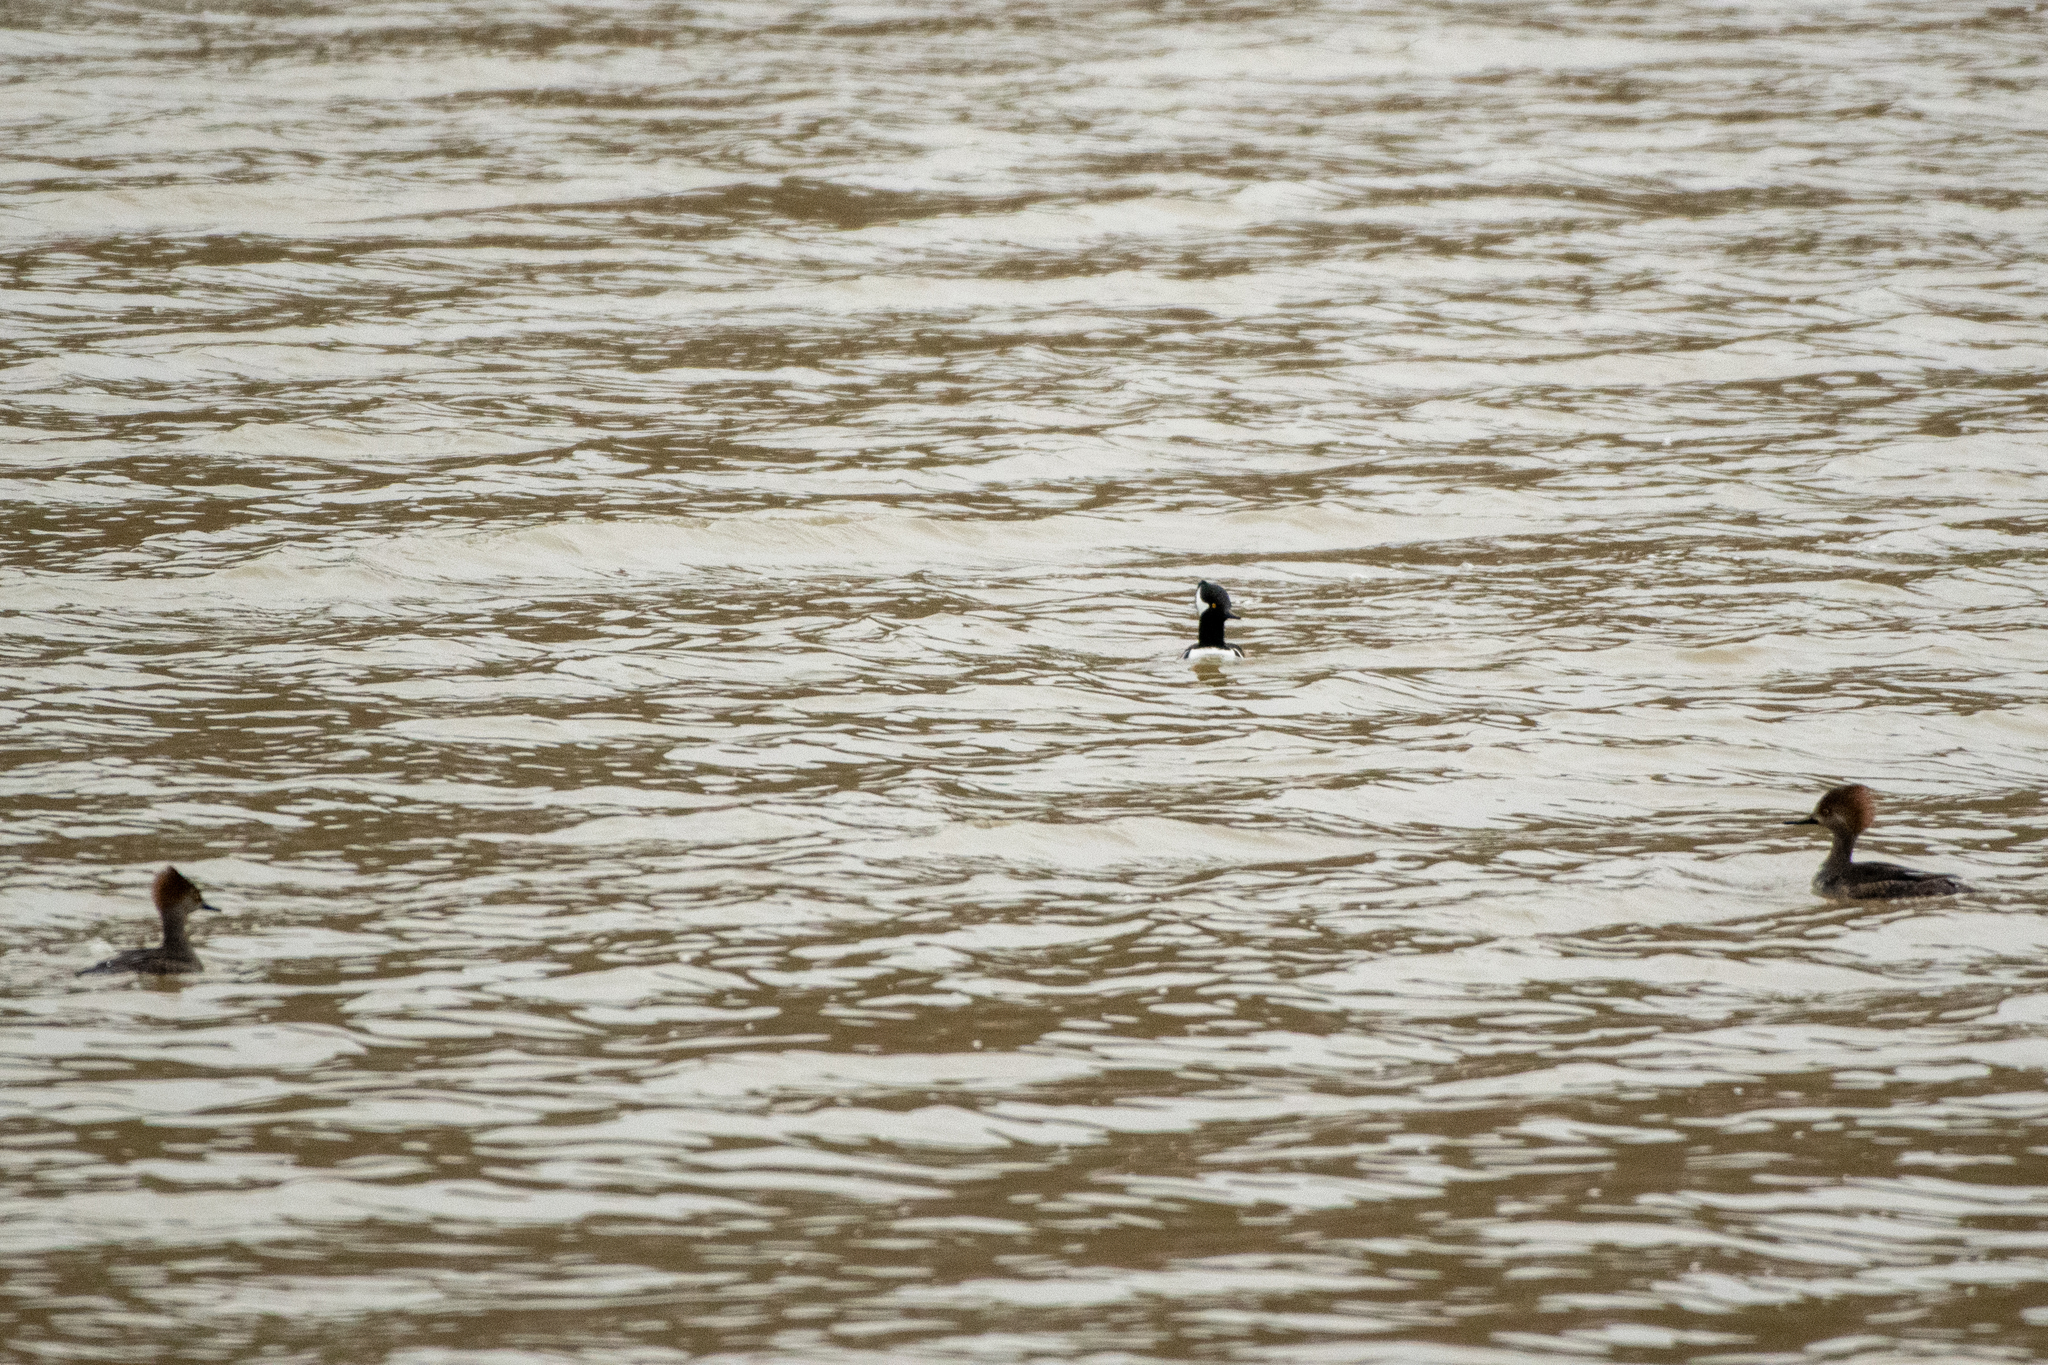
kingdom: Animalia
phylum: Chordata
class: Aves
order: Anseriformes
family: Anatidae
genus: Lophodytes
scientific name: Lophodytes cucullatus
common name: Hooded merganser
